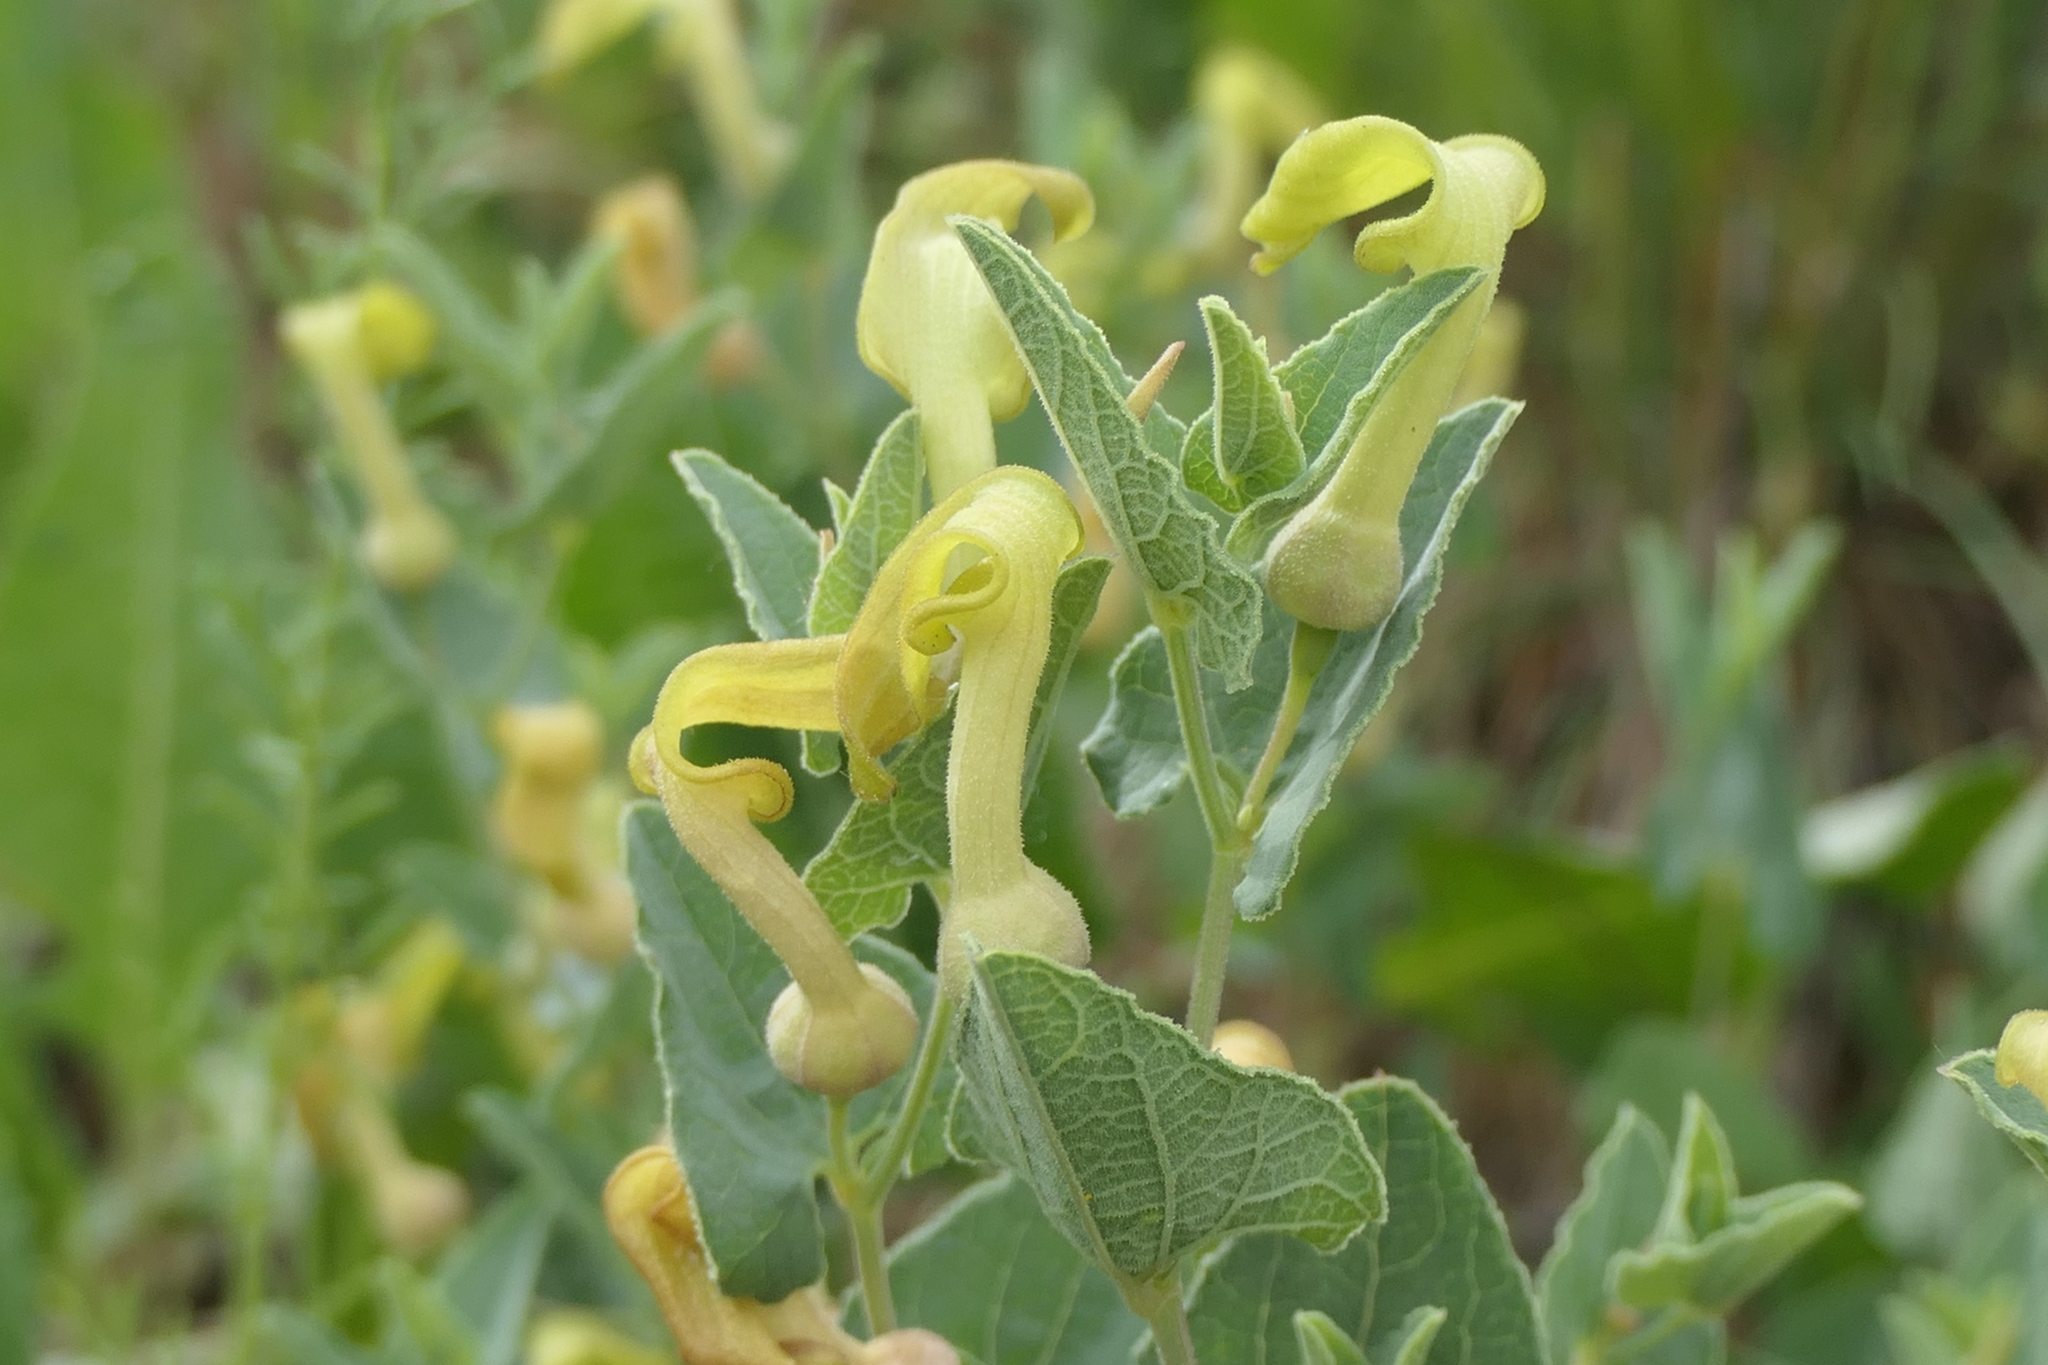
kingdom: Plantae
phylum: Tracheophyta
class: Magnoliopsida
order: Piperales
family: Aristolochiaceae
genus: Aristolochia
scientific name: Aristolochia paucinervis
